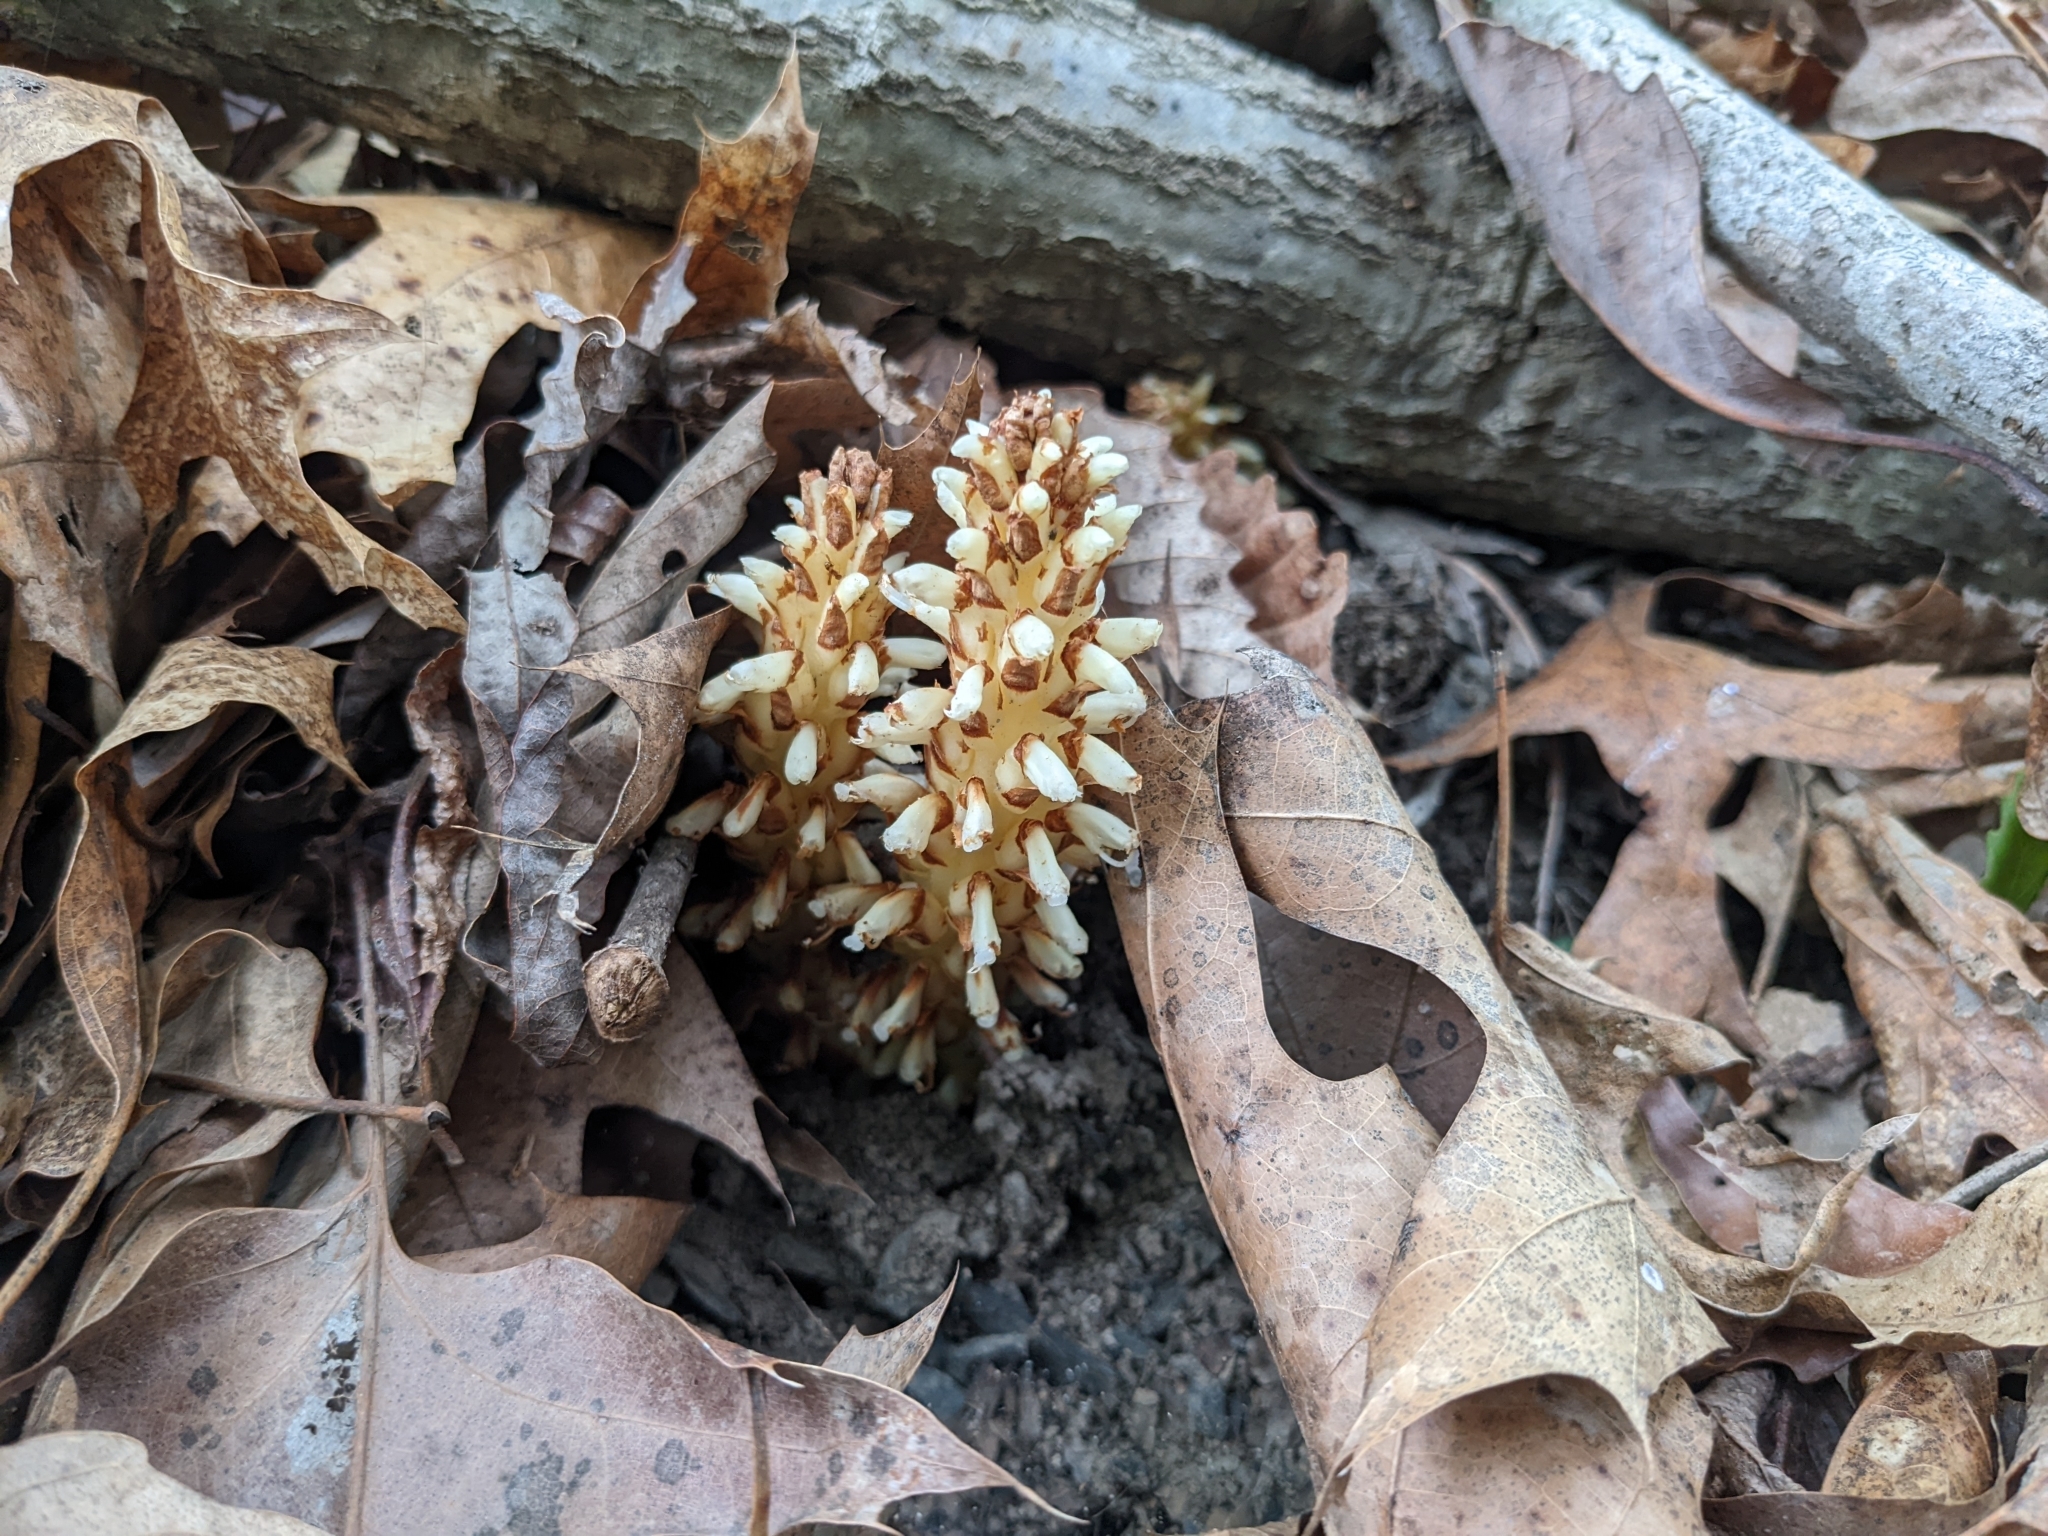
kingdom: Plantae
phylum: Tracheophyta
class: Magnoliopsida
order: Lamiales
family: Orobanchaceae
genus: Conopholis
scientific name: Conopholis americana
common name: American cancer-root
